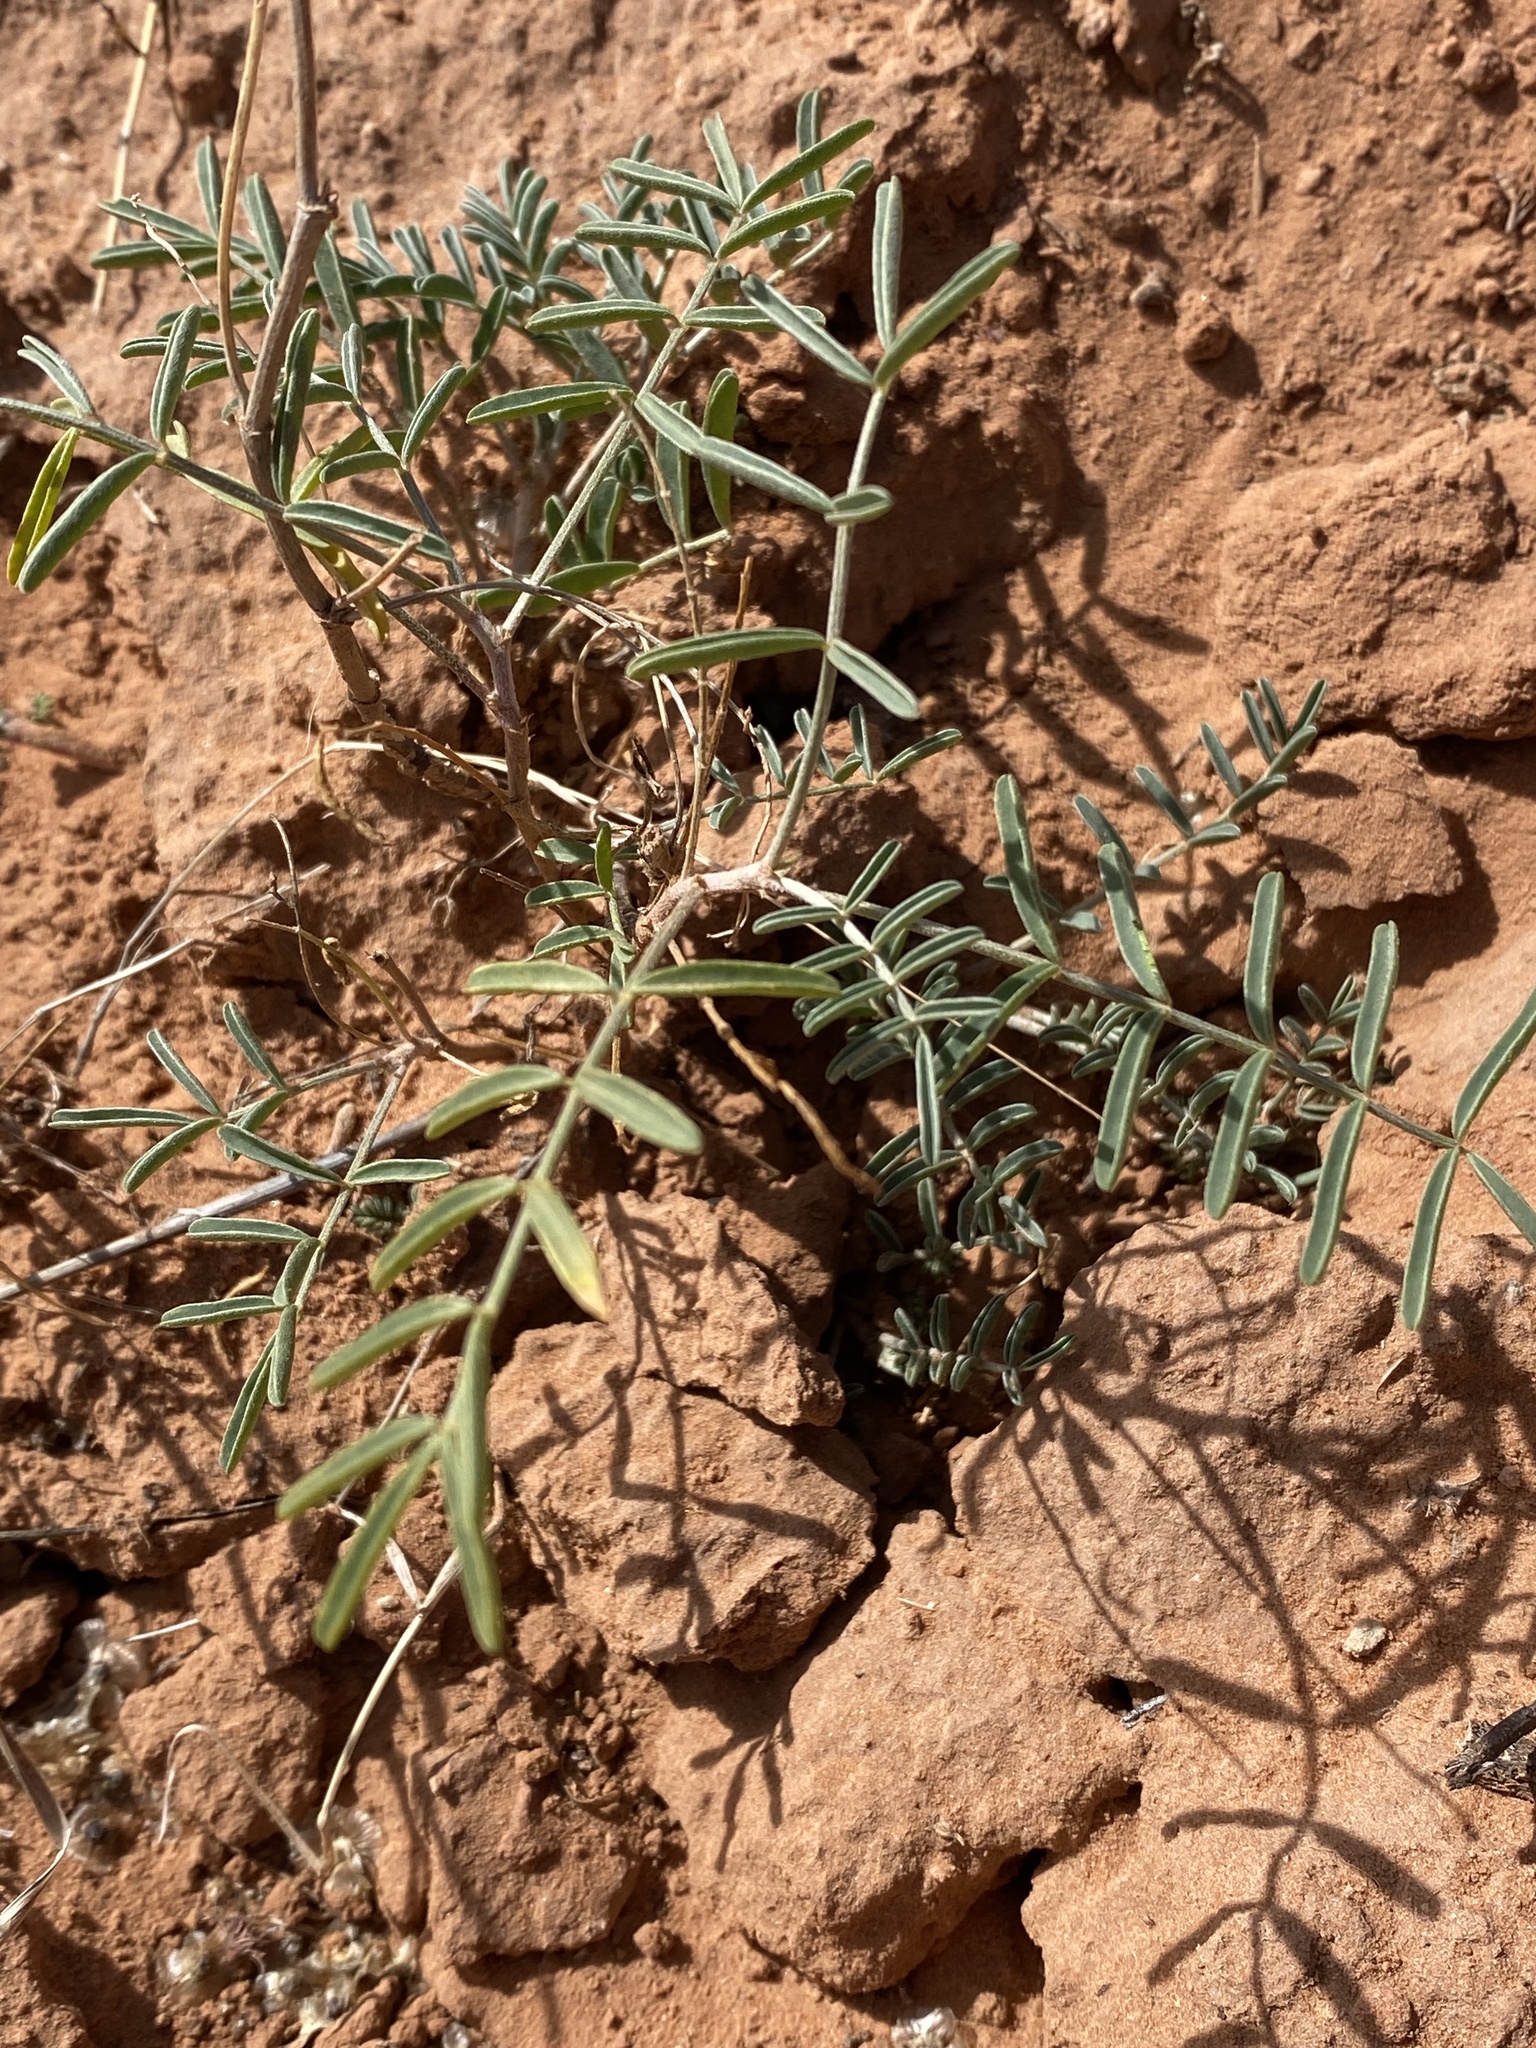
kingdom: Plantae
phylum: Tracheophyta
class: Magnoliopsida
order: Fabales
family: Fabaceae
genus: Astragalus
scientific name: Astragalus fucatus
